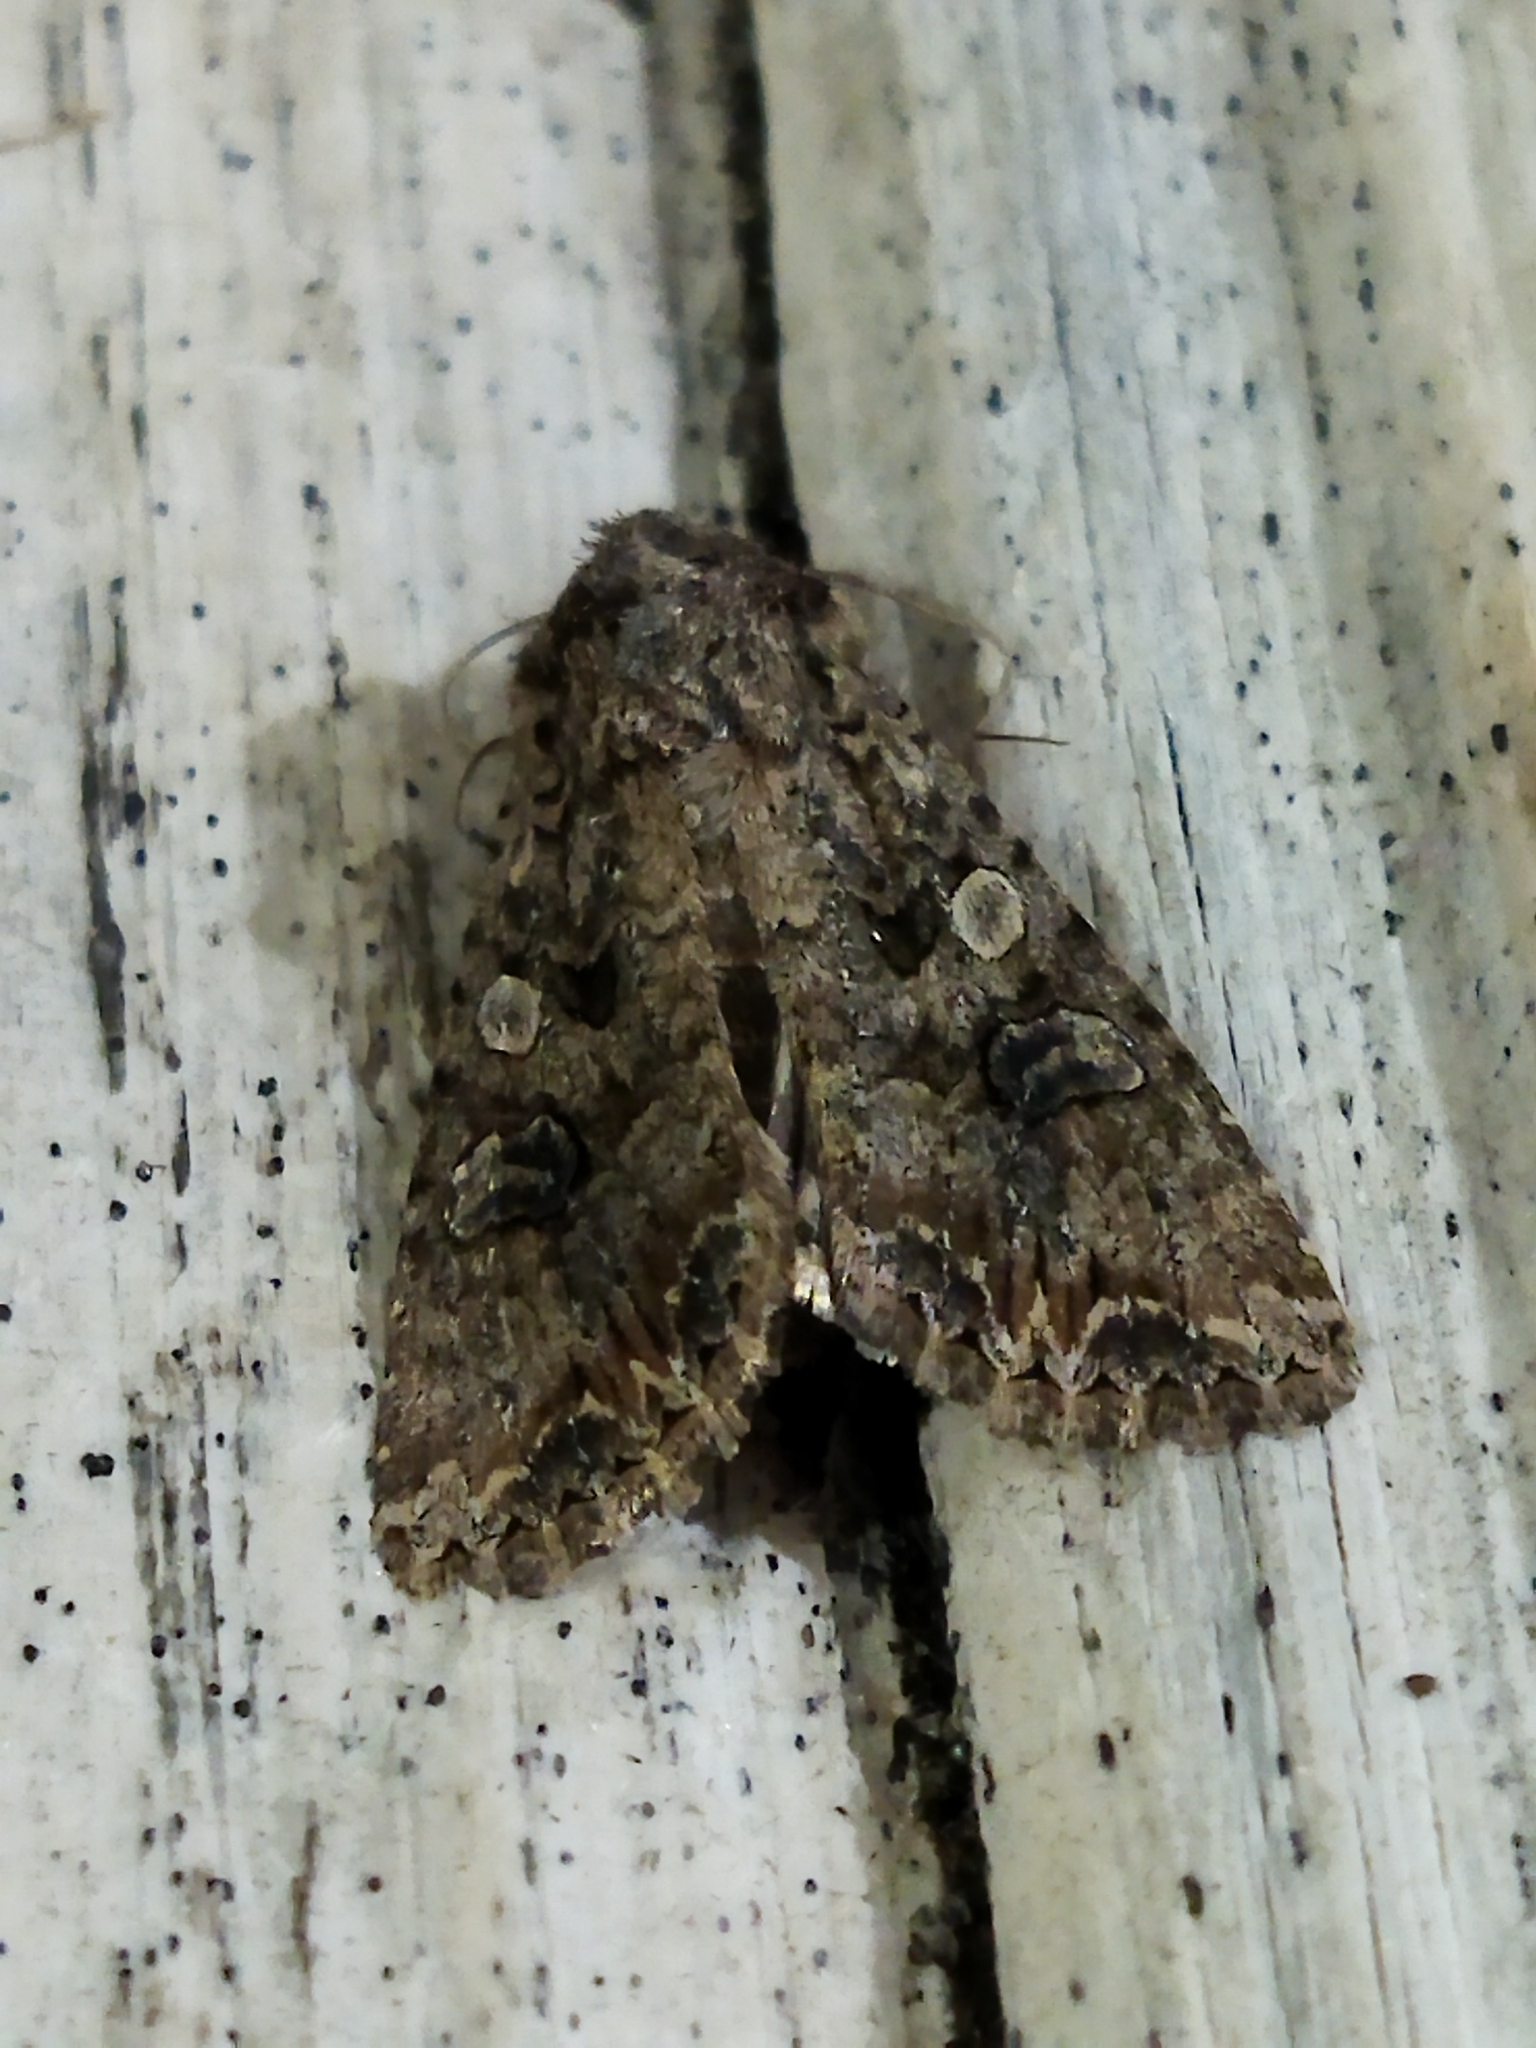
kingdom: Animalia
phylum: Arthropoda
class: Insecta
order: Lepidoptera
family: Noctuidae
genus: Anarta
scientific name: Anarta trifolii
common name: Clover cutworm moth
